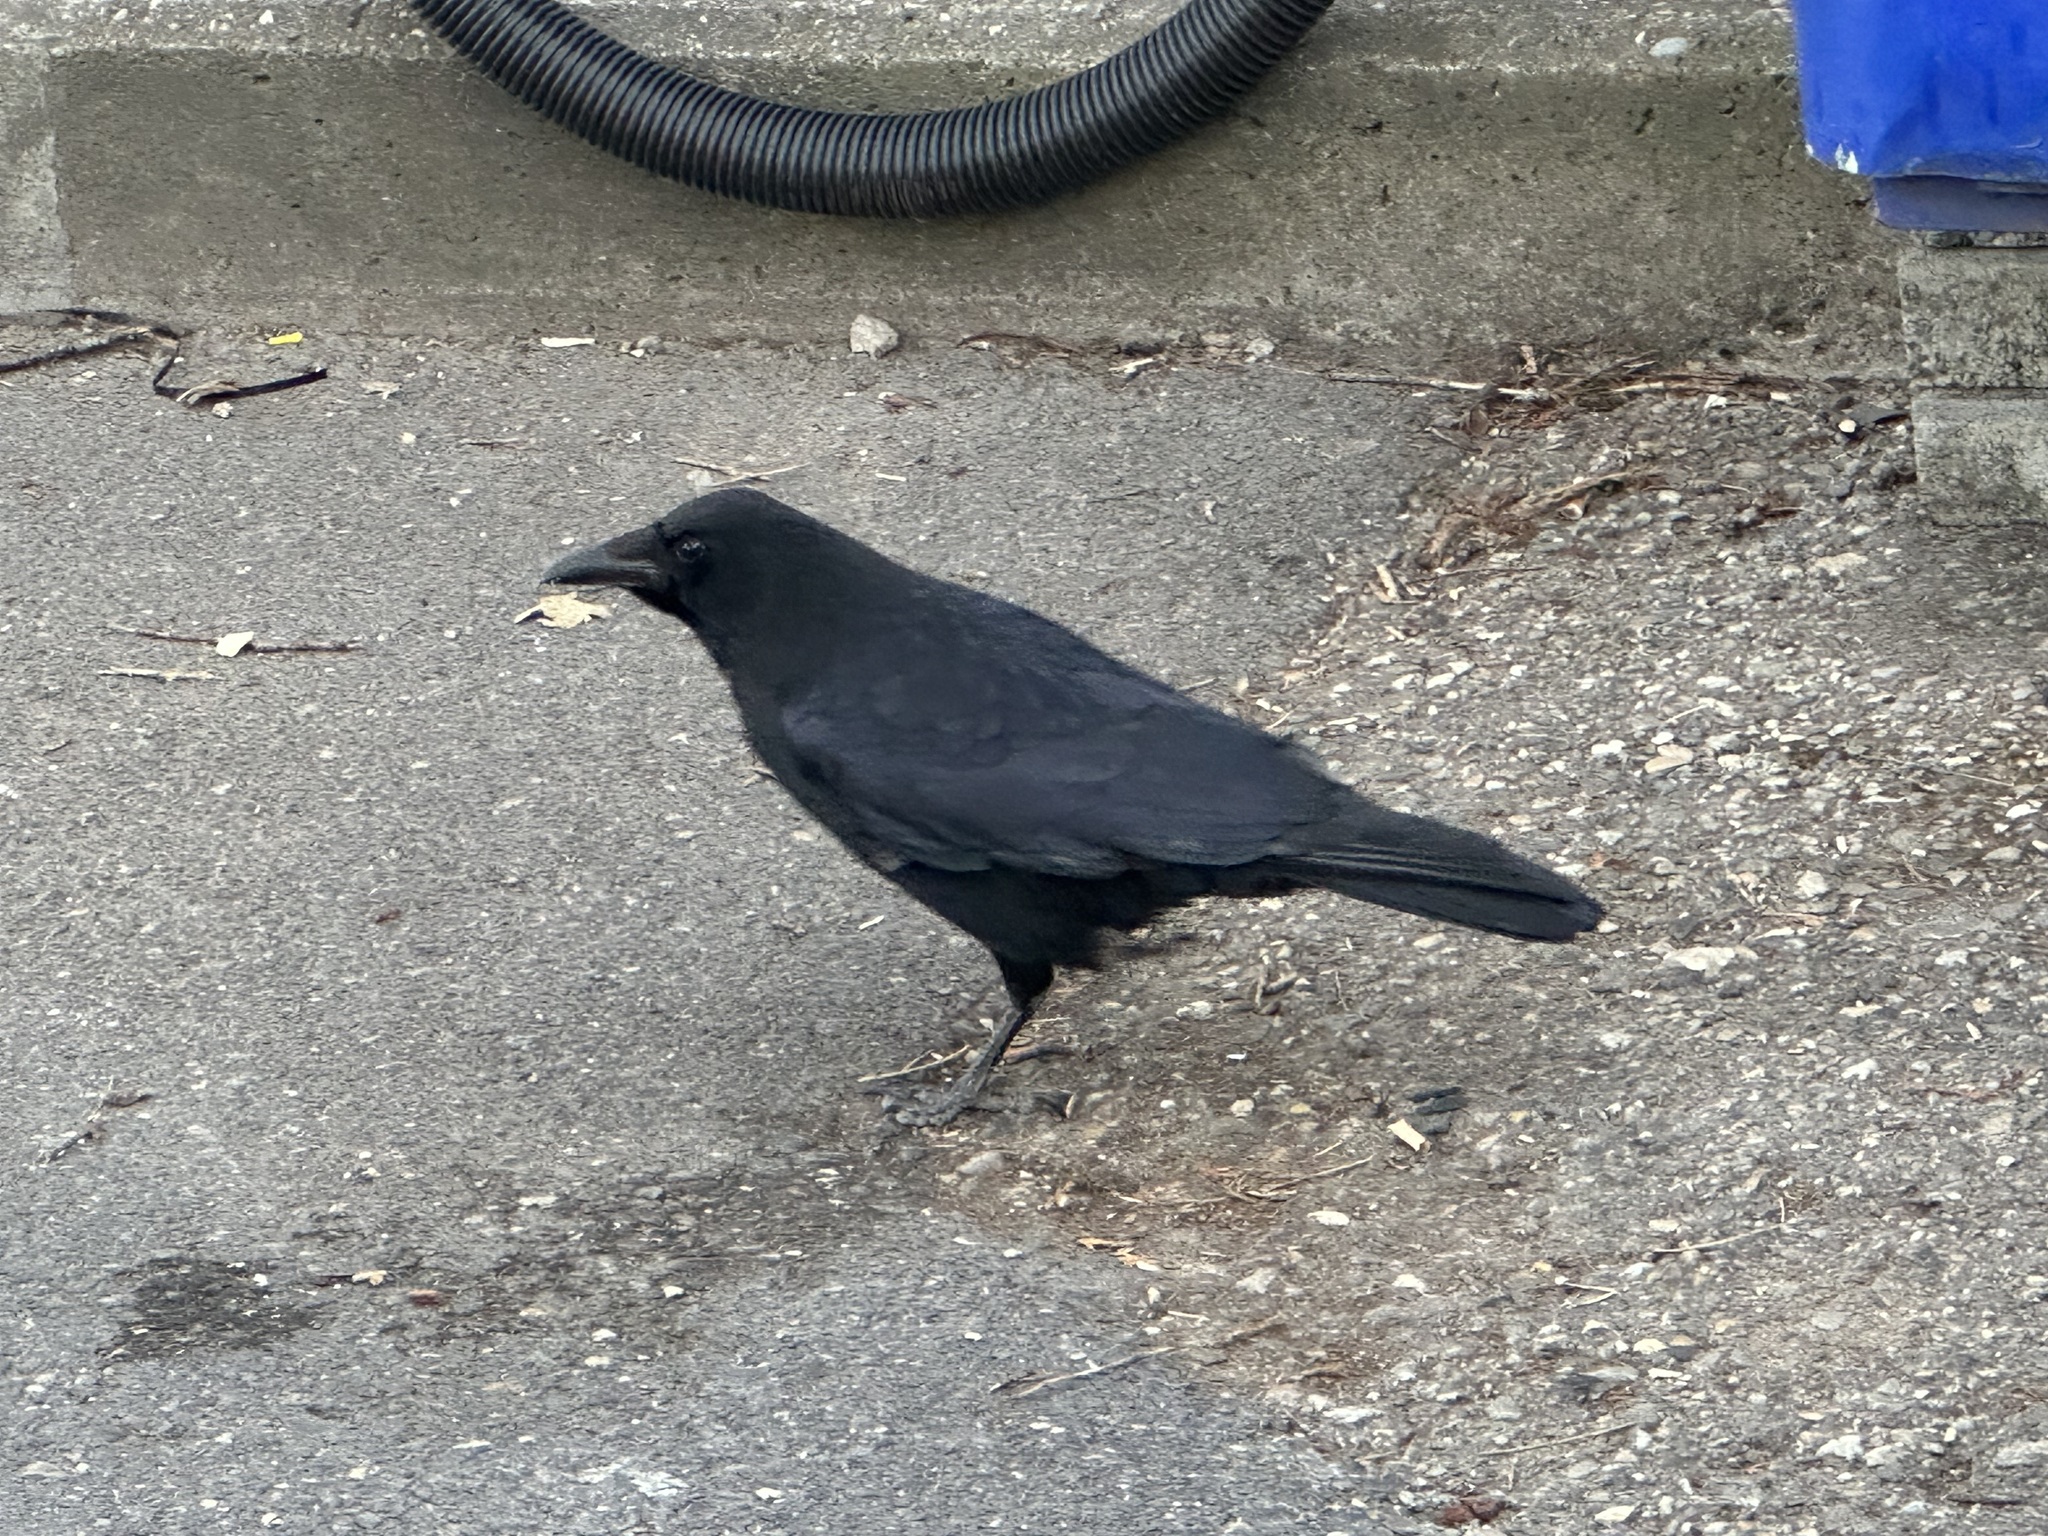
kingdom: Animalia
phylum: Chordata
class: Aves
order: Passeriformes
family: Corvidae
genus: Corvus
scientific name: Corvus corone
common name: Carrion crow
